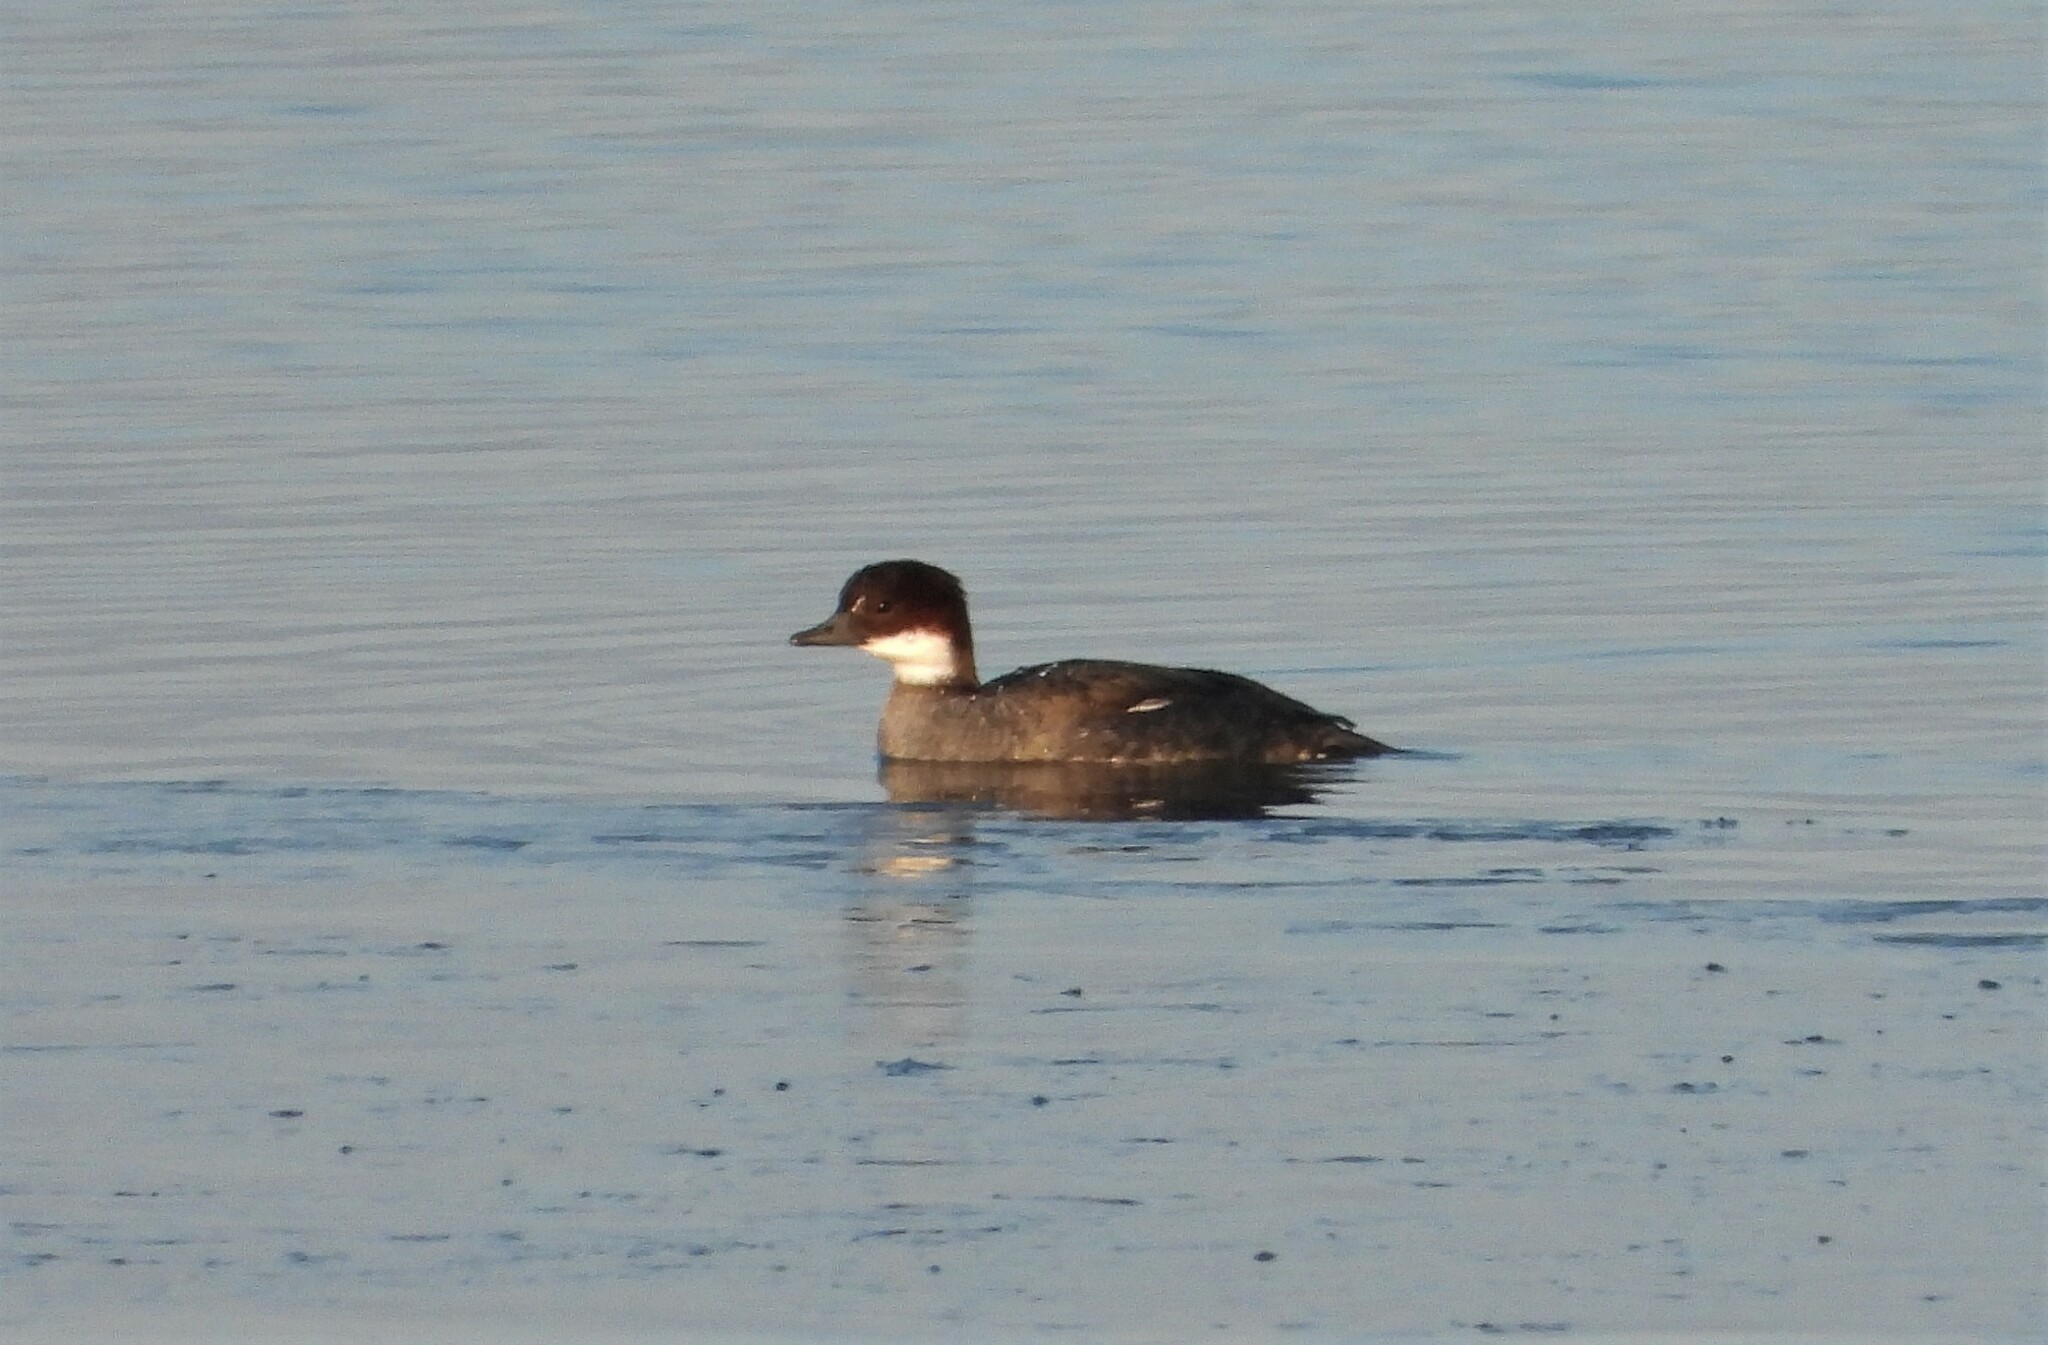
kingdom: Animalia
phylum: Chordata
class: Aves
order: Anseriformes
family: Anatidae
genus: Mergellus
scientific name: Mergellus albellus
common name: Smew
